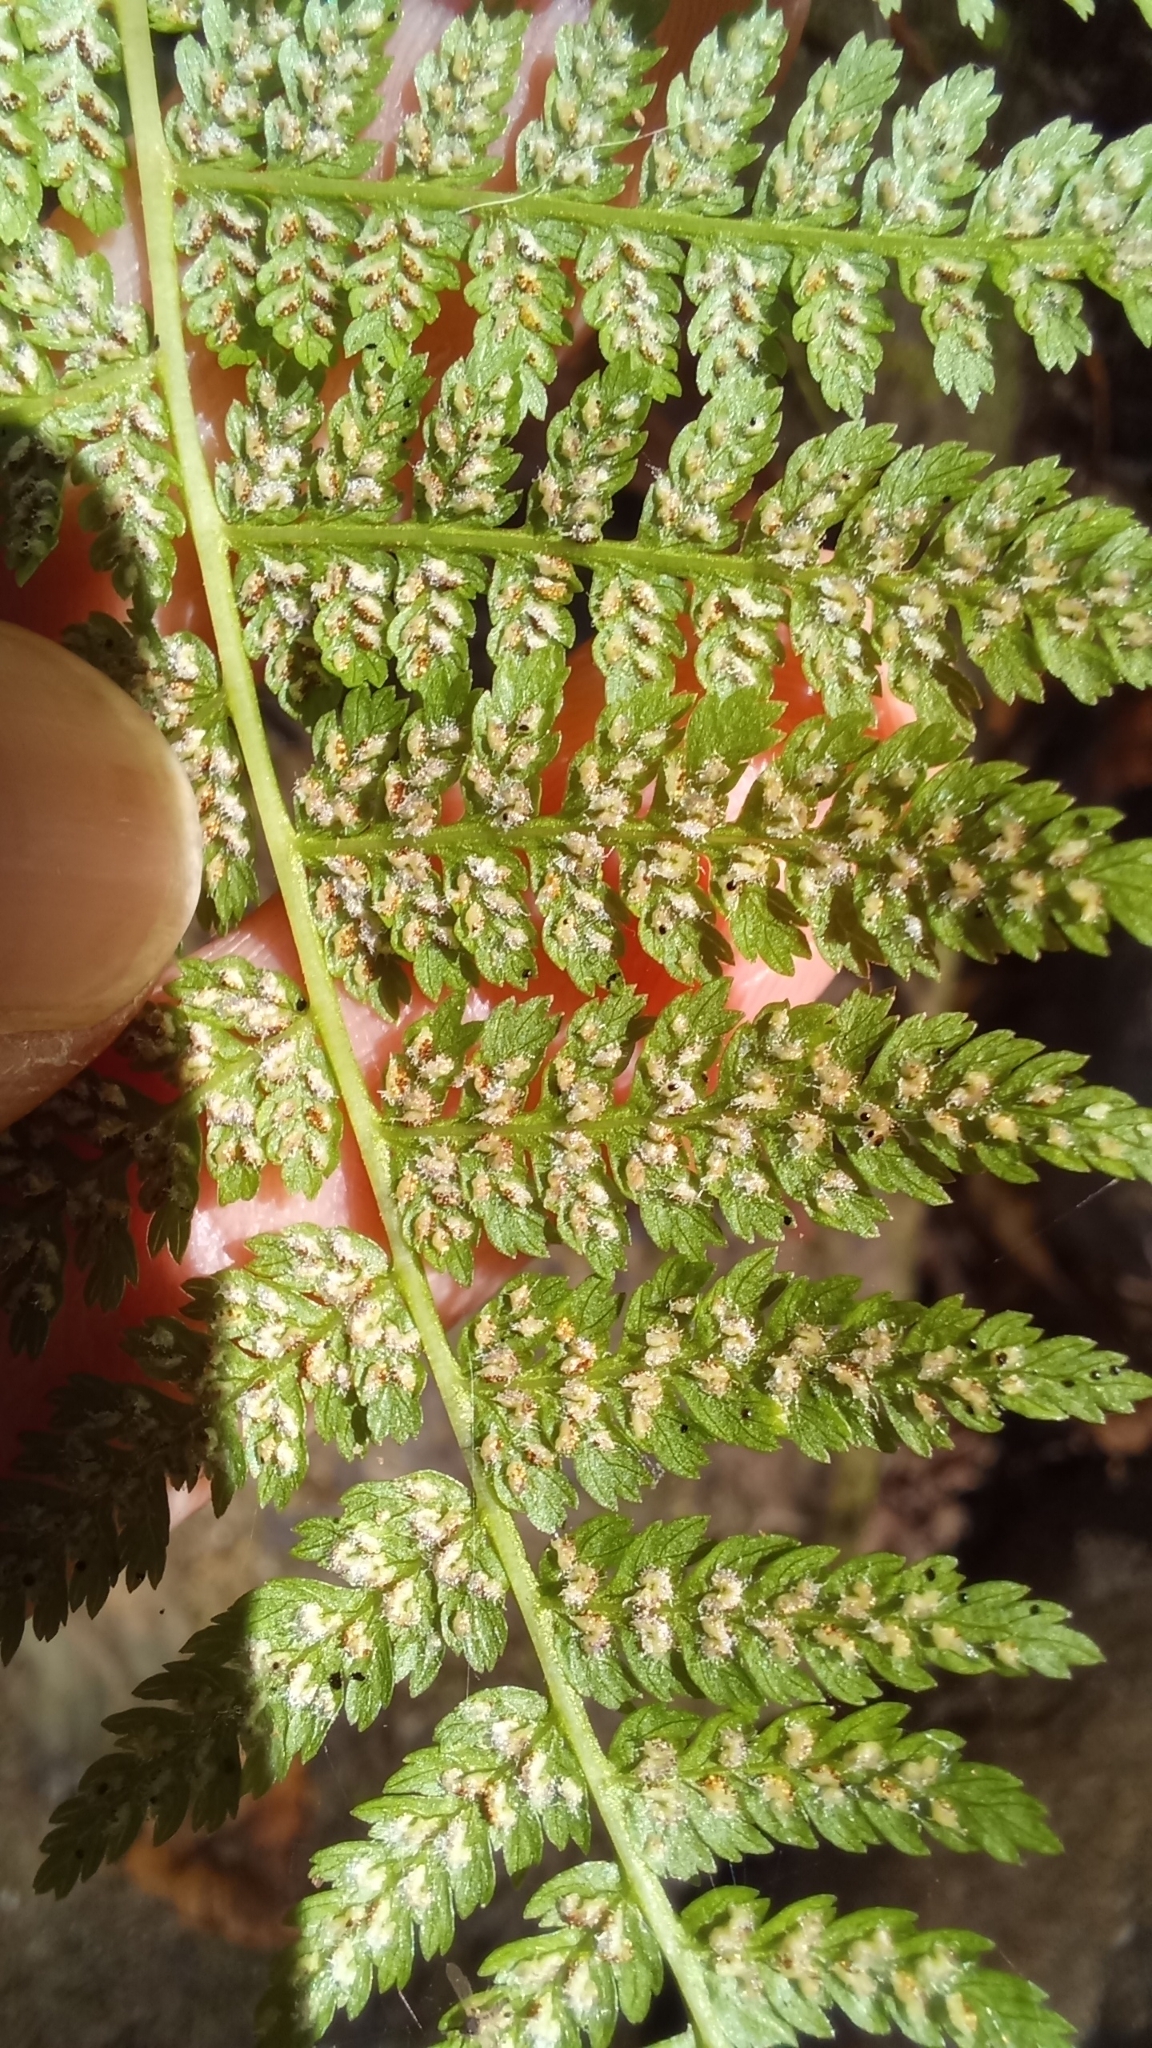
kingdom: Plantae
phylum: Tracheophyta
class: Polypodiopsida
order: Polypodiales
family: Athyriaceae
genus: Athyrium
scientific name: Athyrium filix-femina
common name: Lady fern
